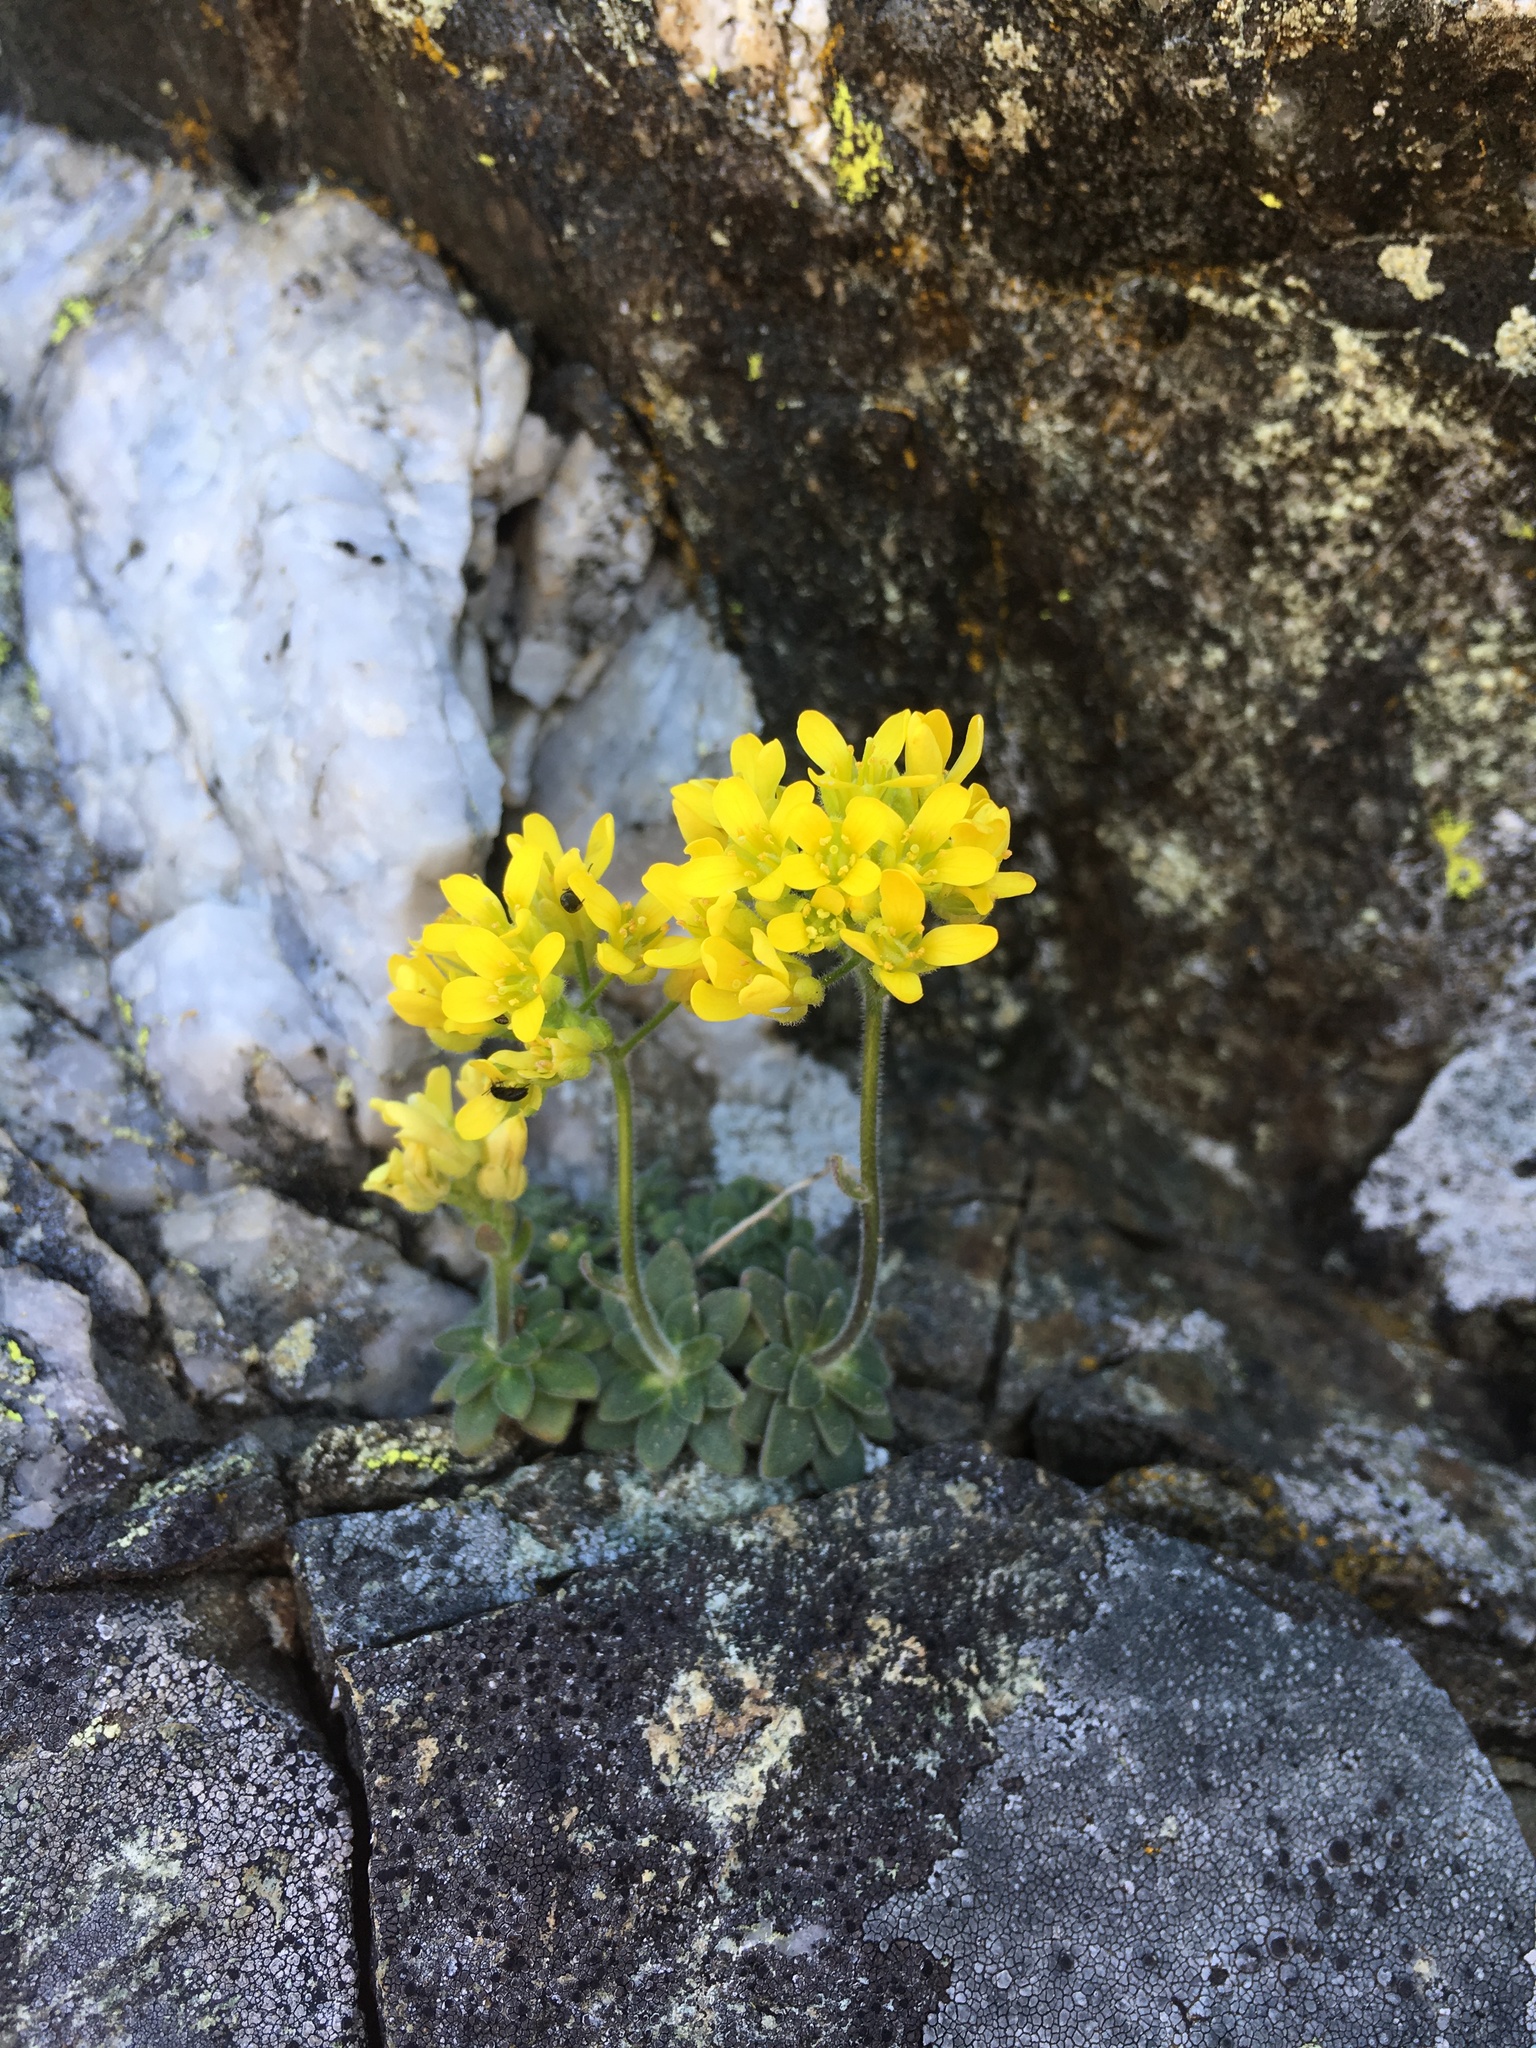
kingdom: Plantae
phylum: Tracheophyta
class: Magnoliopsida
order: Brassicales
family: Brassicaceae
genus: Draba
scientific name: Draba howellii
